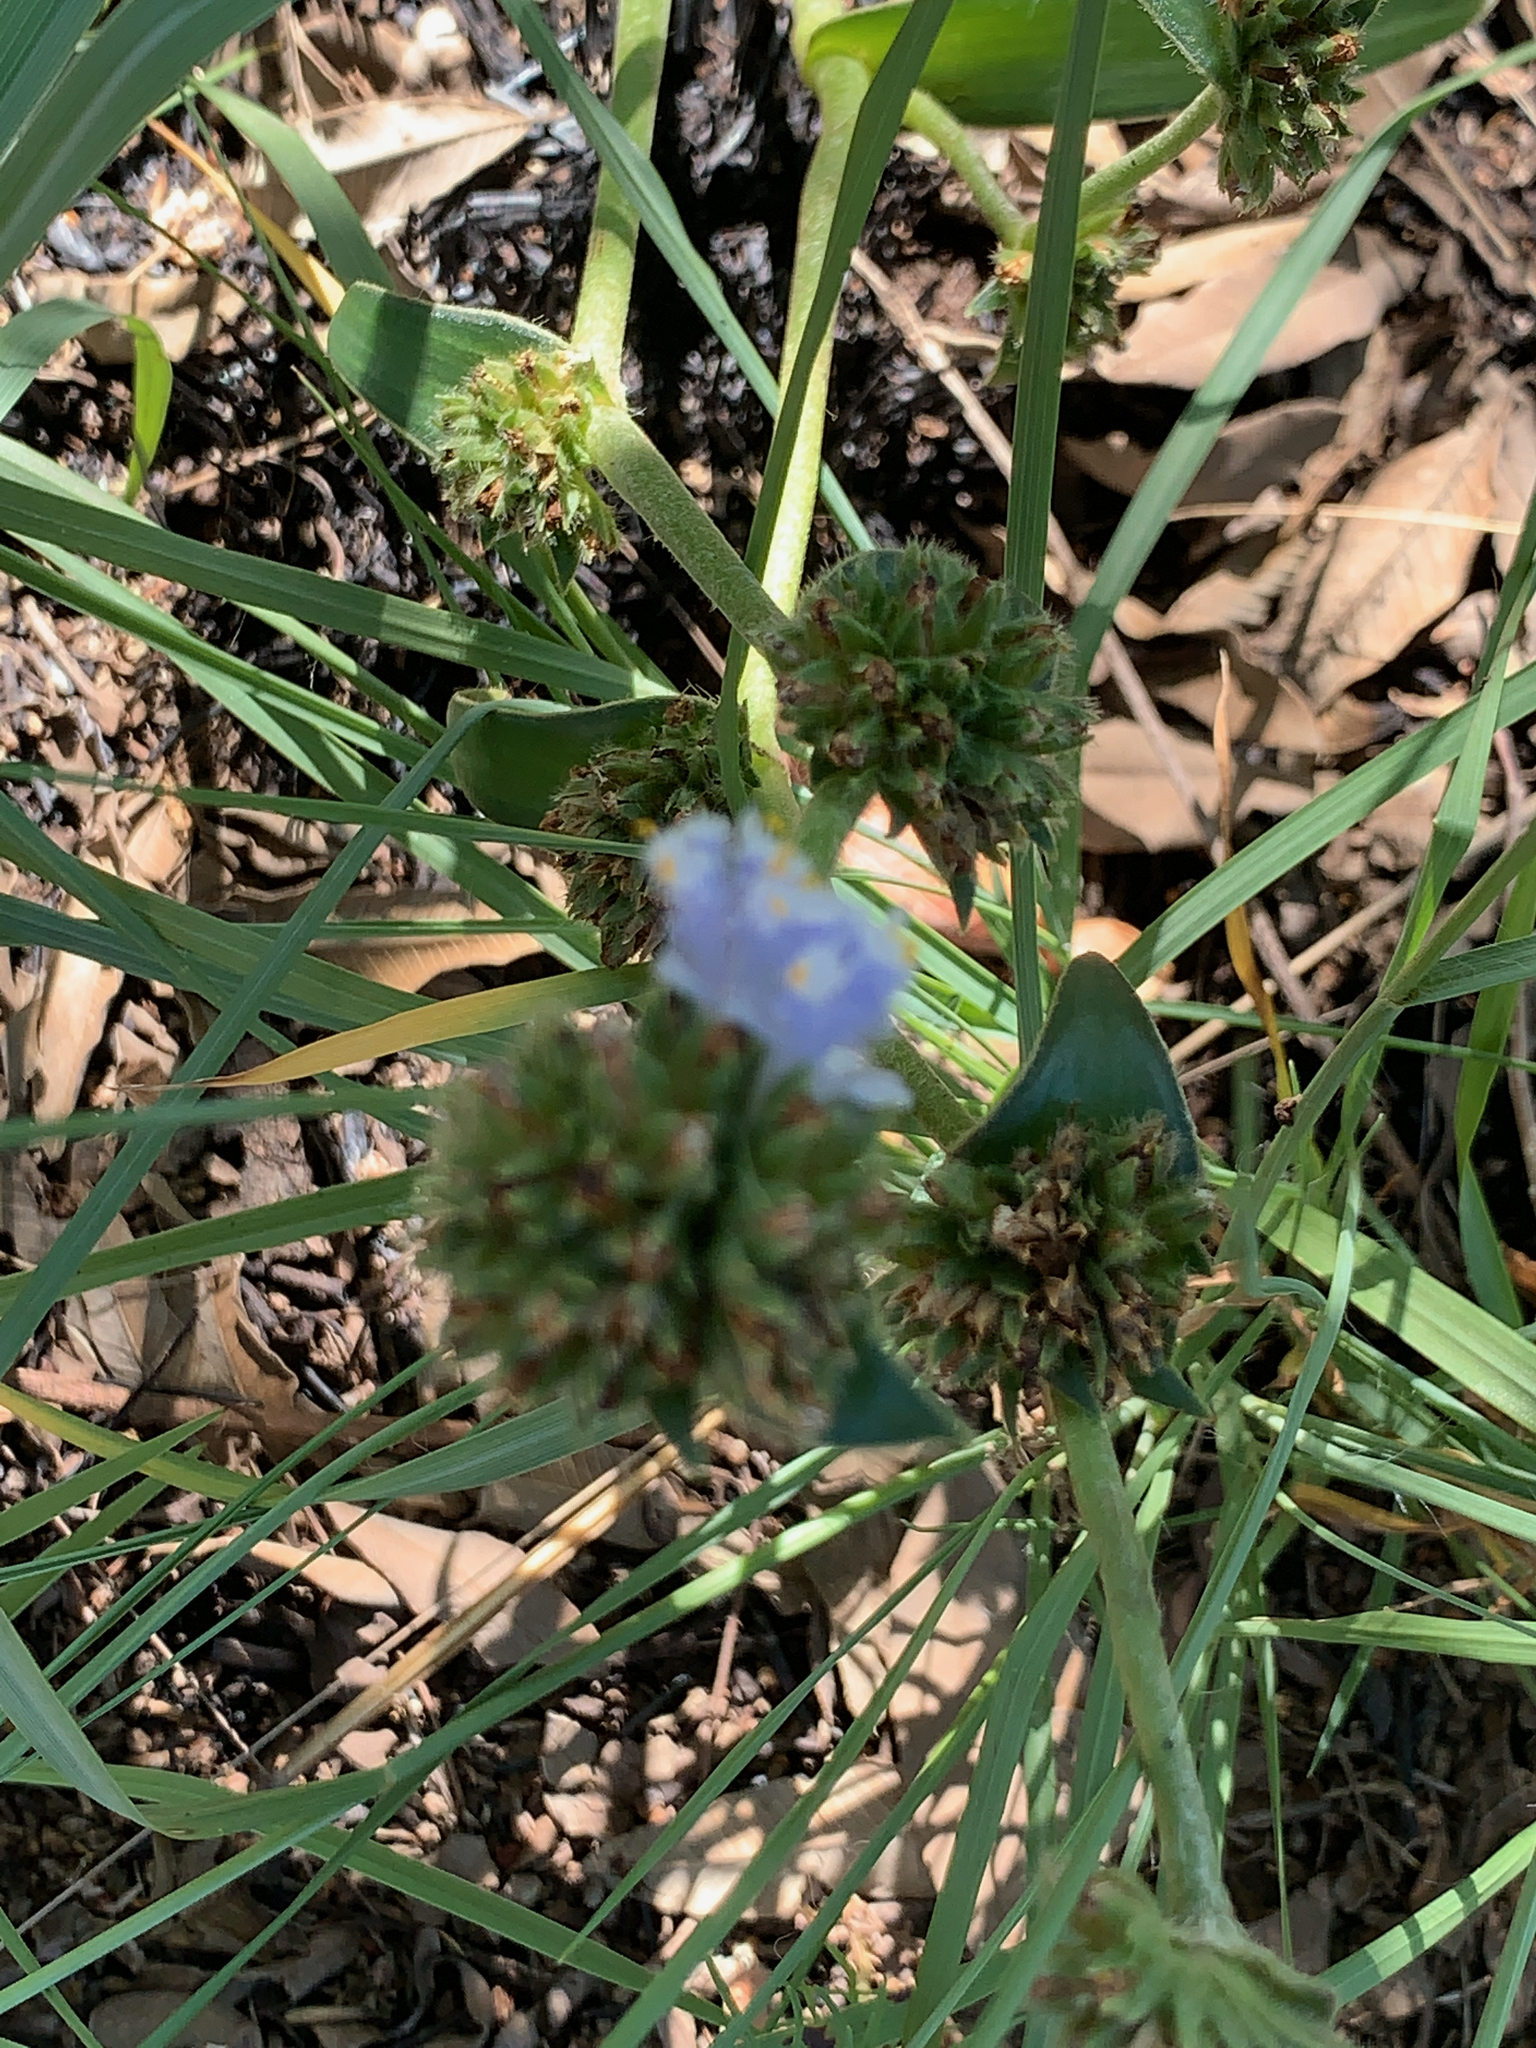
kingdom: Plantae
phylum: Tracheophyta
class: Liliopsida
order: Commelinales
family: Commelinaceae
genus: Cyanotis
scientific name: Cyanotis speciosa
